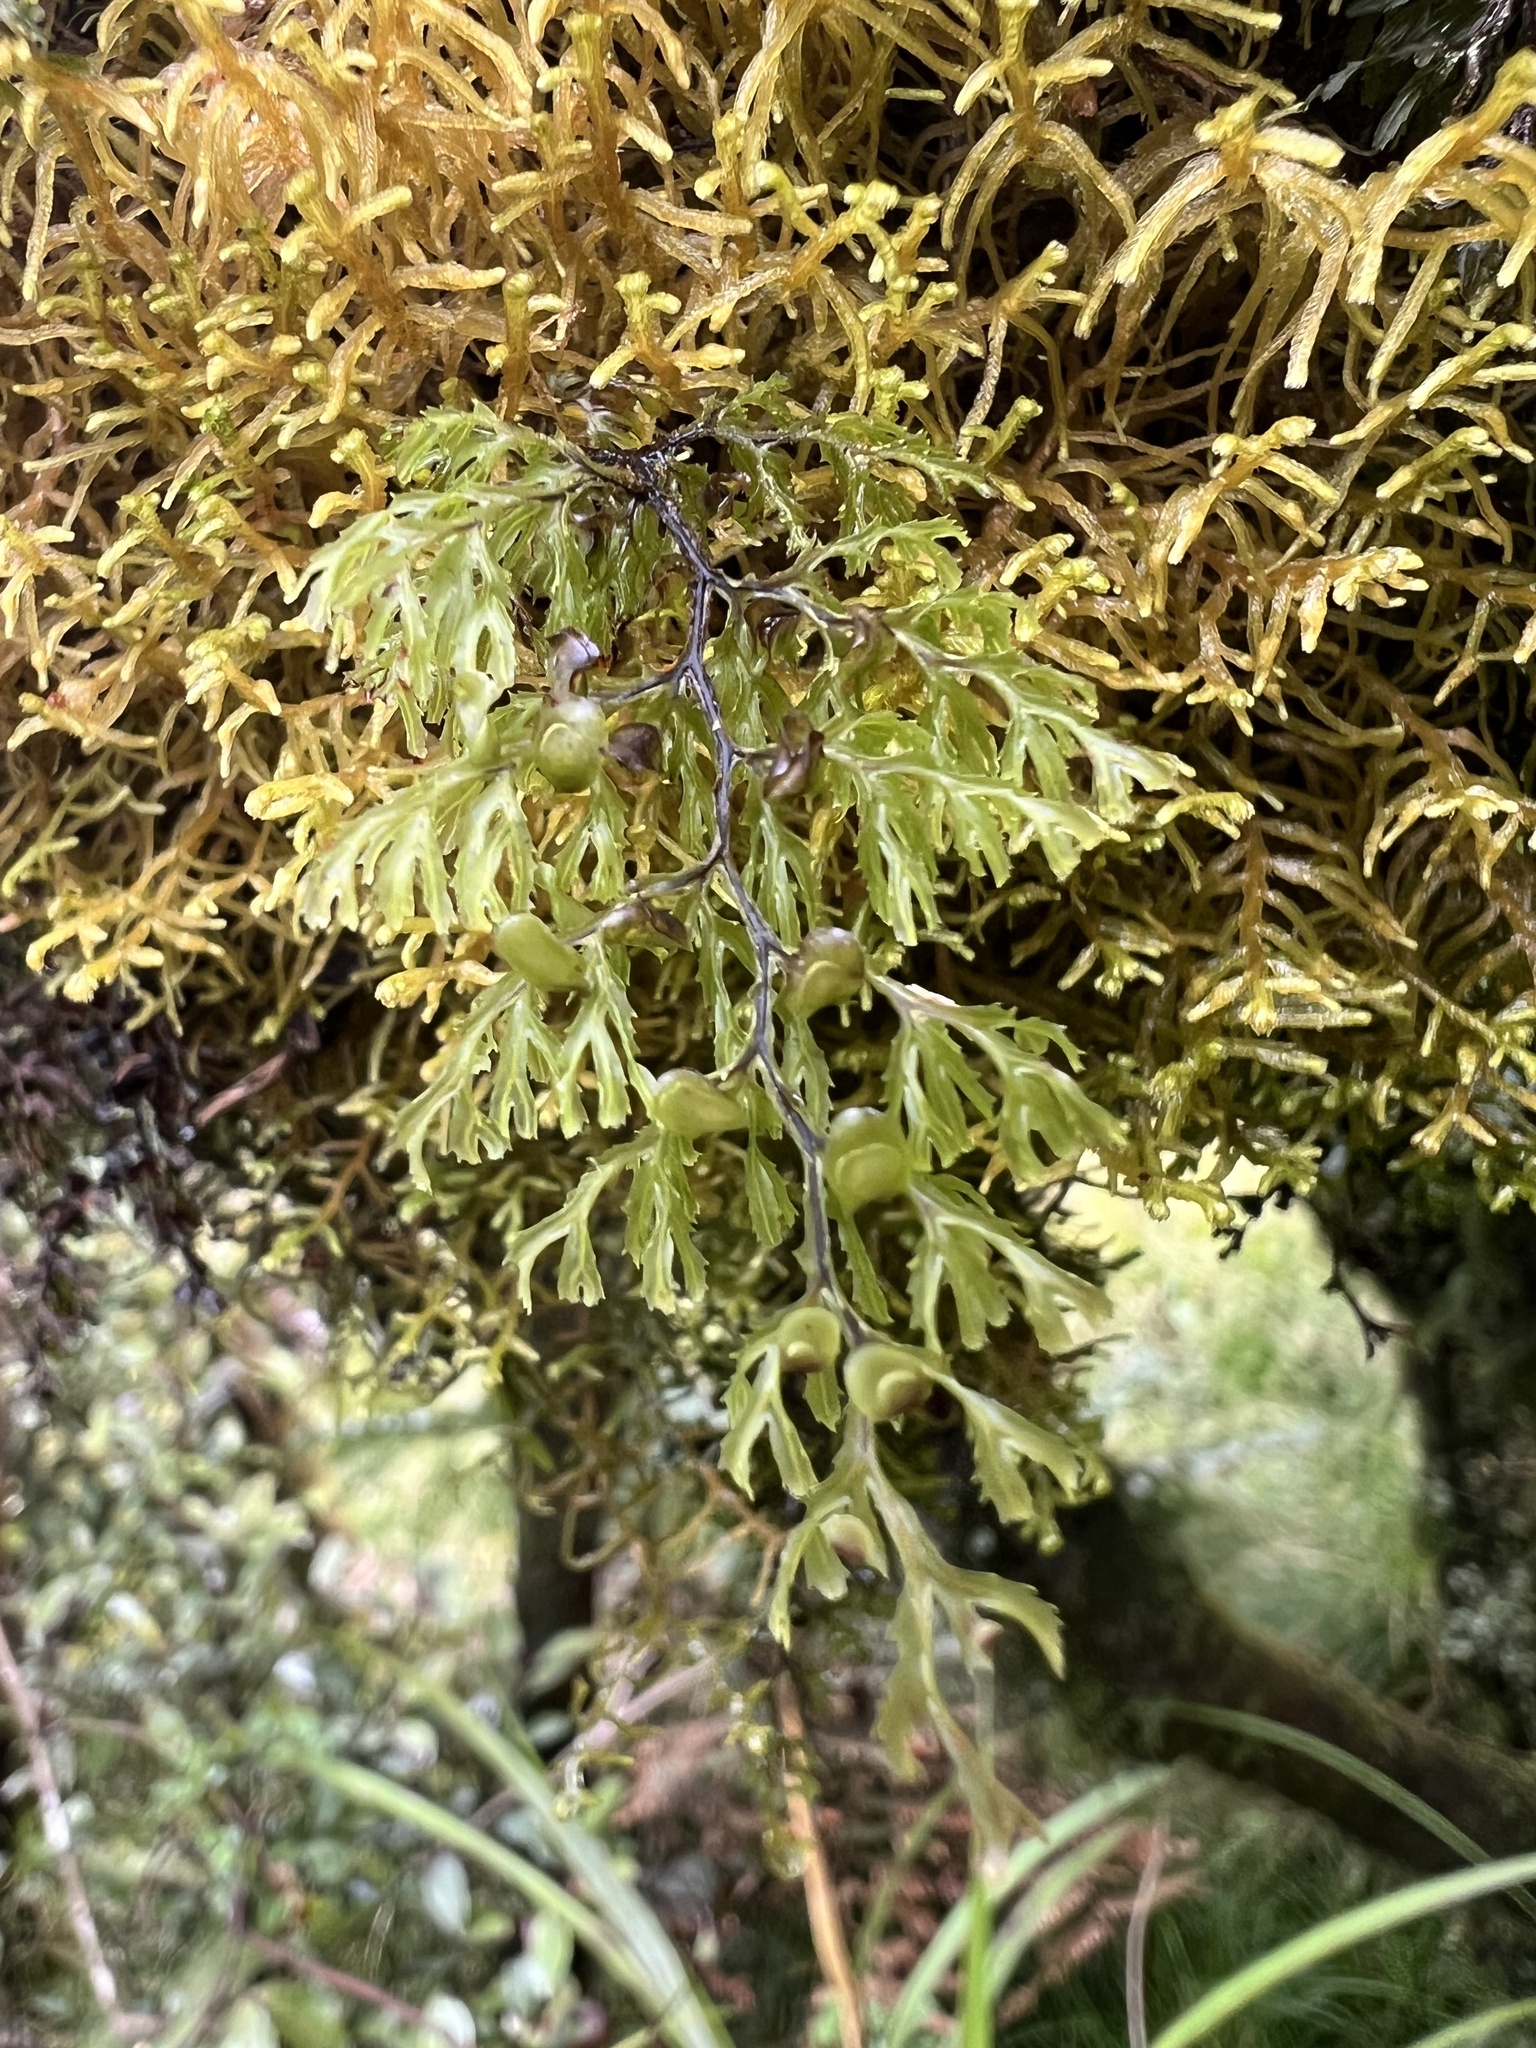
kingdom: Plantae
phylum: Tracheophyta
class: Polypodiopsida
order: Hymenophyllales
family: Hymenophyllaceae
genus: Hymenophyllum
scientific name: Hymenophyllum multifidum
